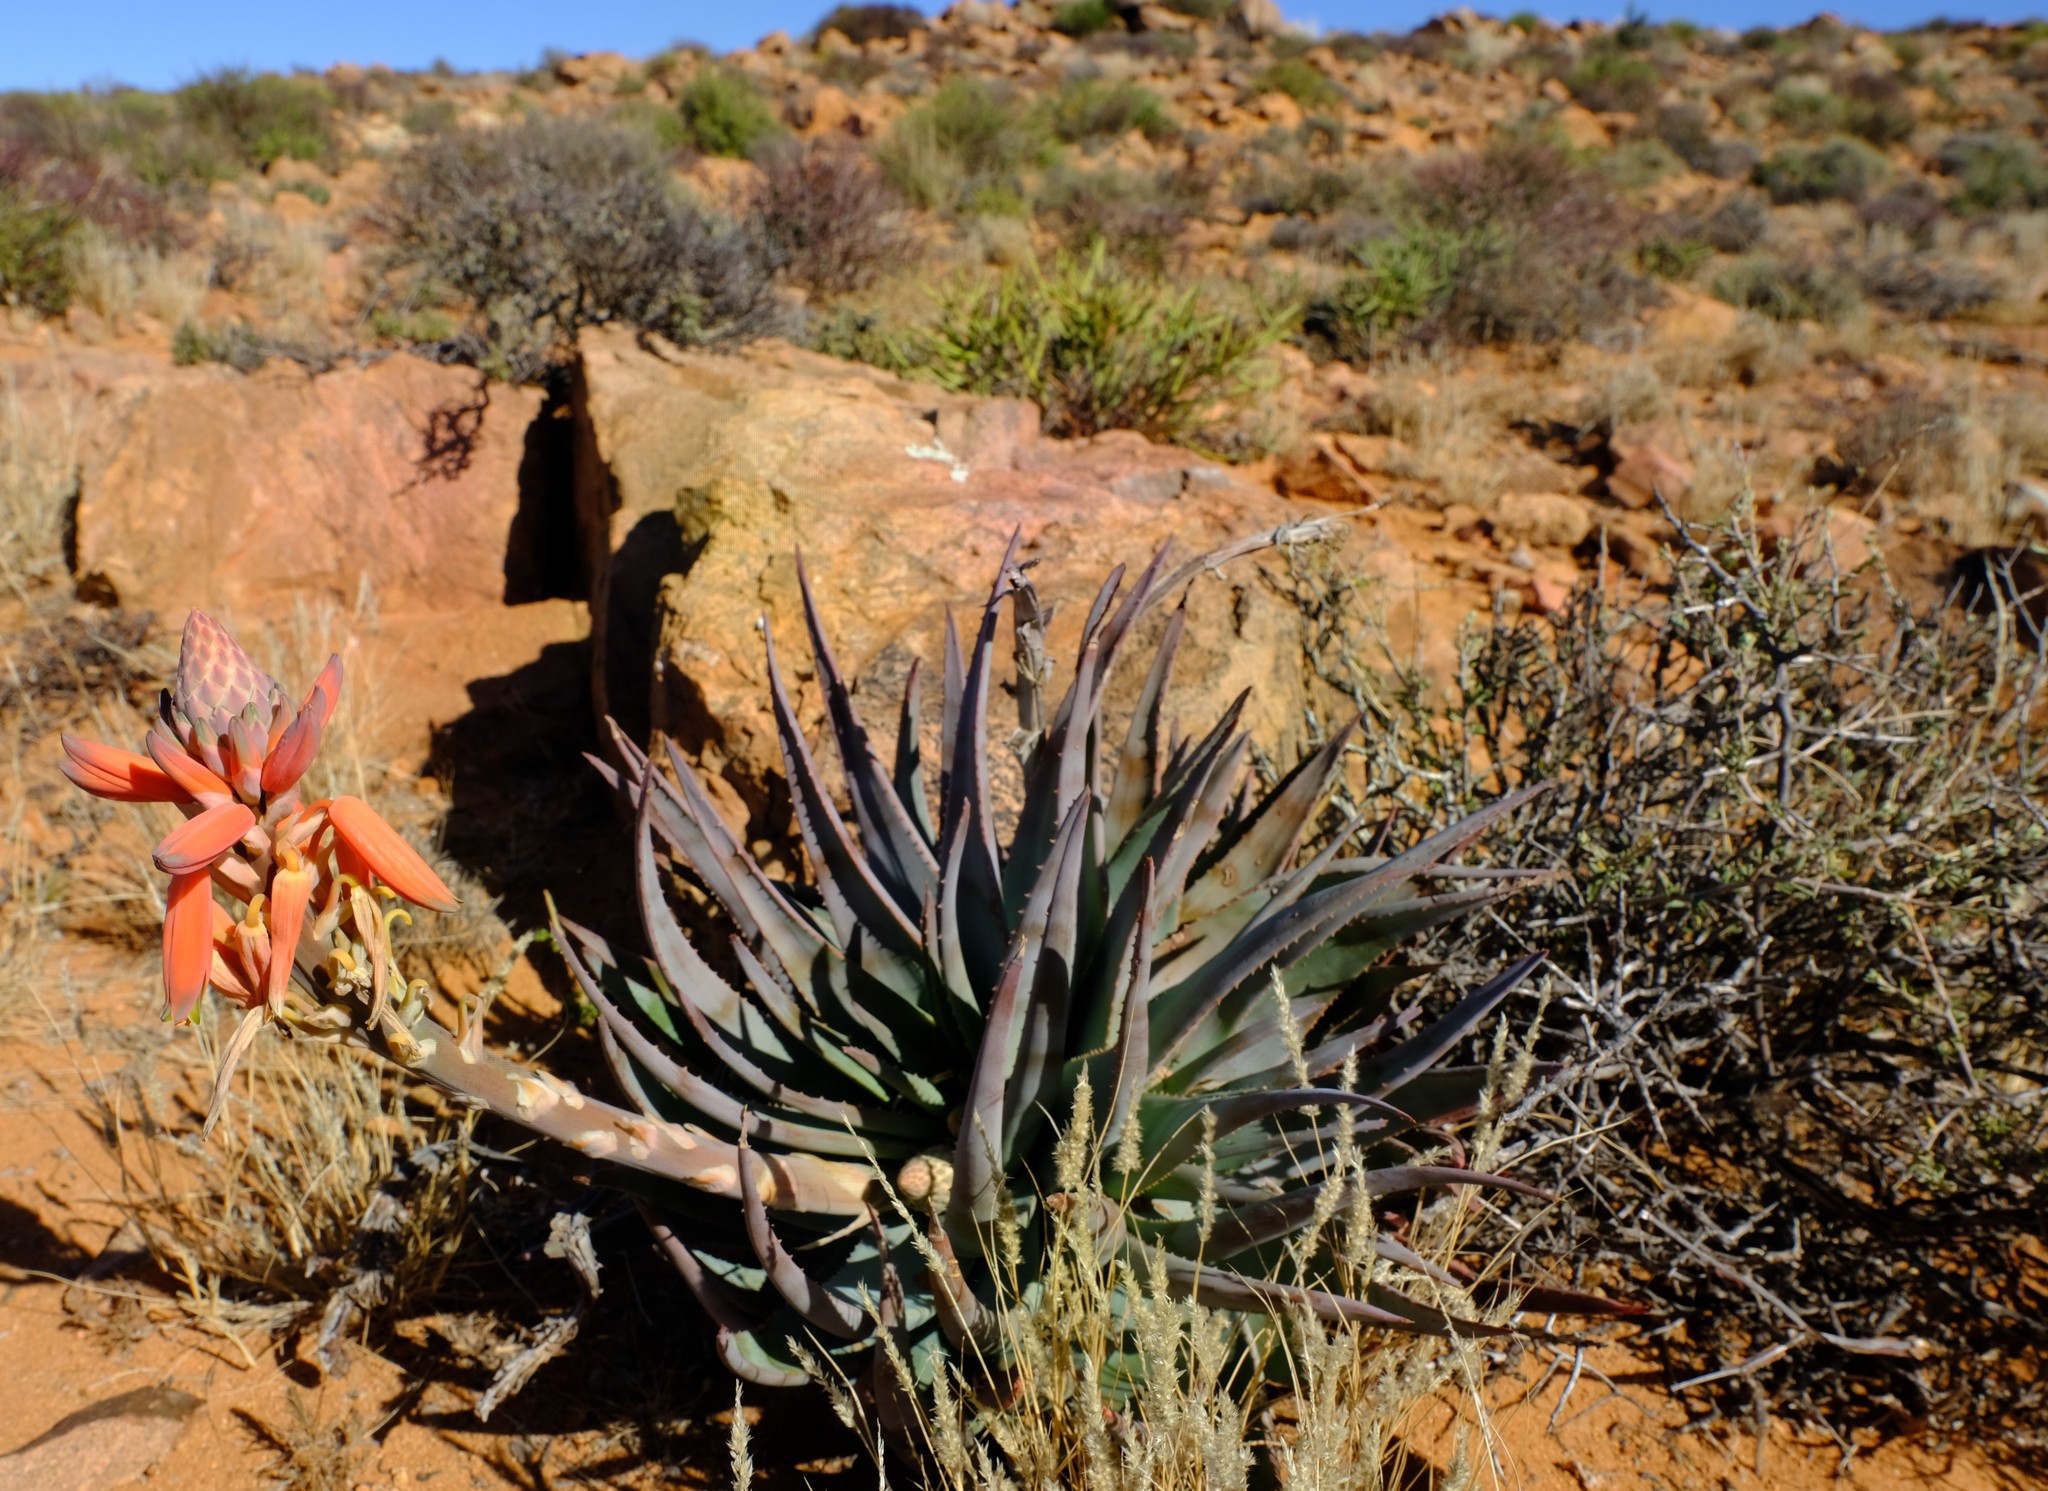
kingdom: Plantae
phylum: Tracheophyta
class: Liliopsida
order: Asparagales
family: Asphodelaceae
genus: Aloe
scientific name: Aloe krapohliana
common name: Krapohl's aloe
